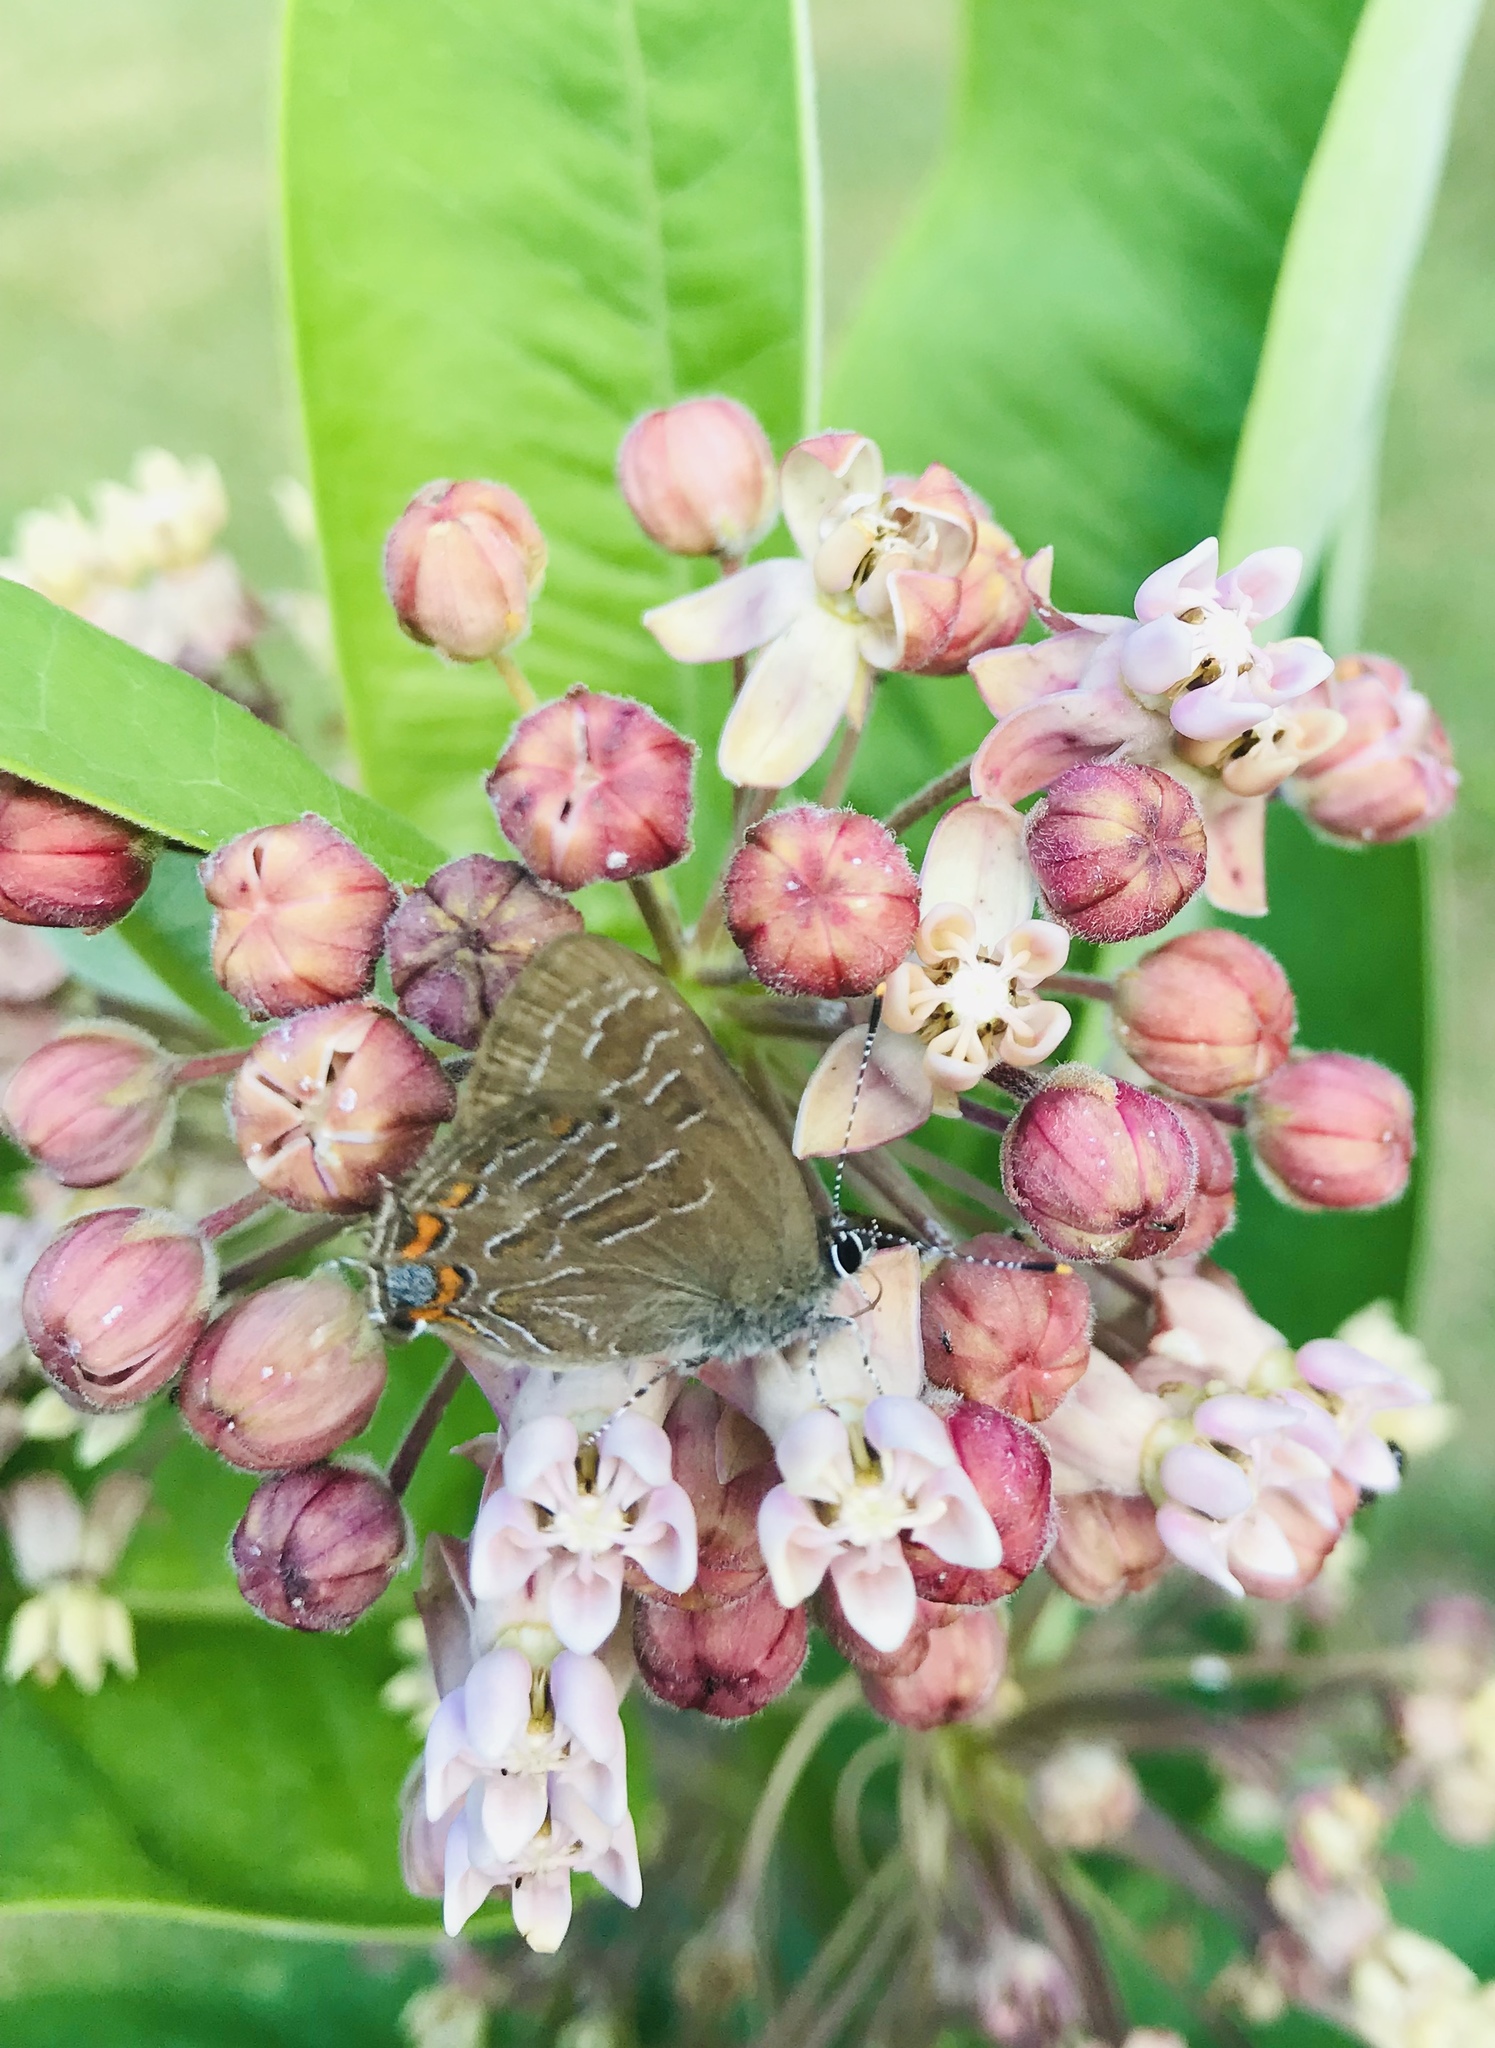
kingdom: Animalia
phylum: Arthropoda
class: Insecta
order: Lepidoptera
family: Lycaenidae
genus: Satyrium
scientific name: Satyrium liparops
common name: Striped hairstreak
